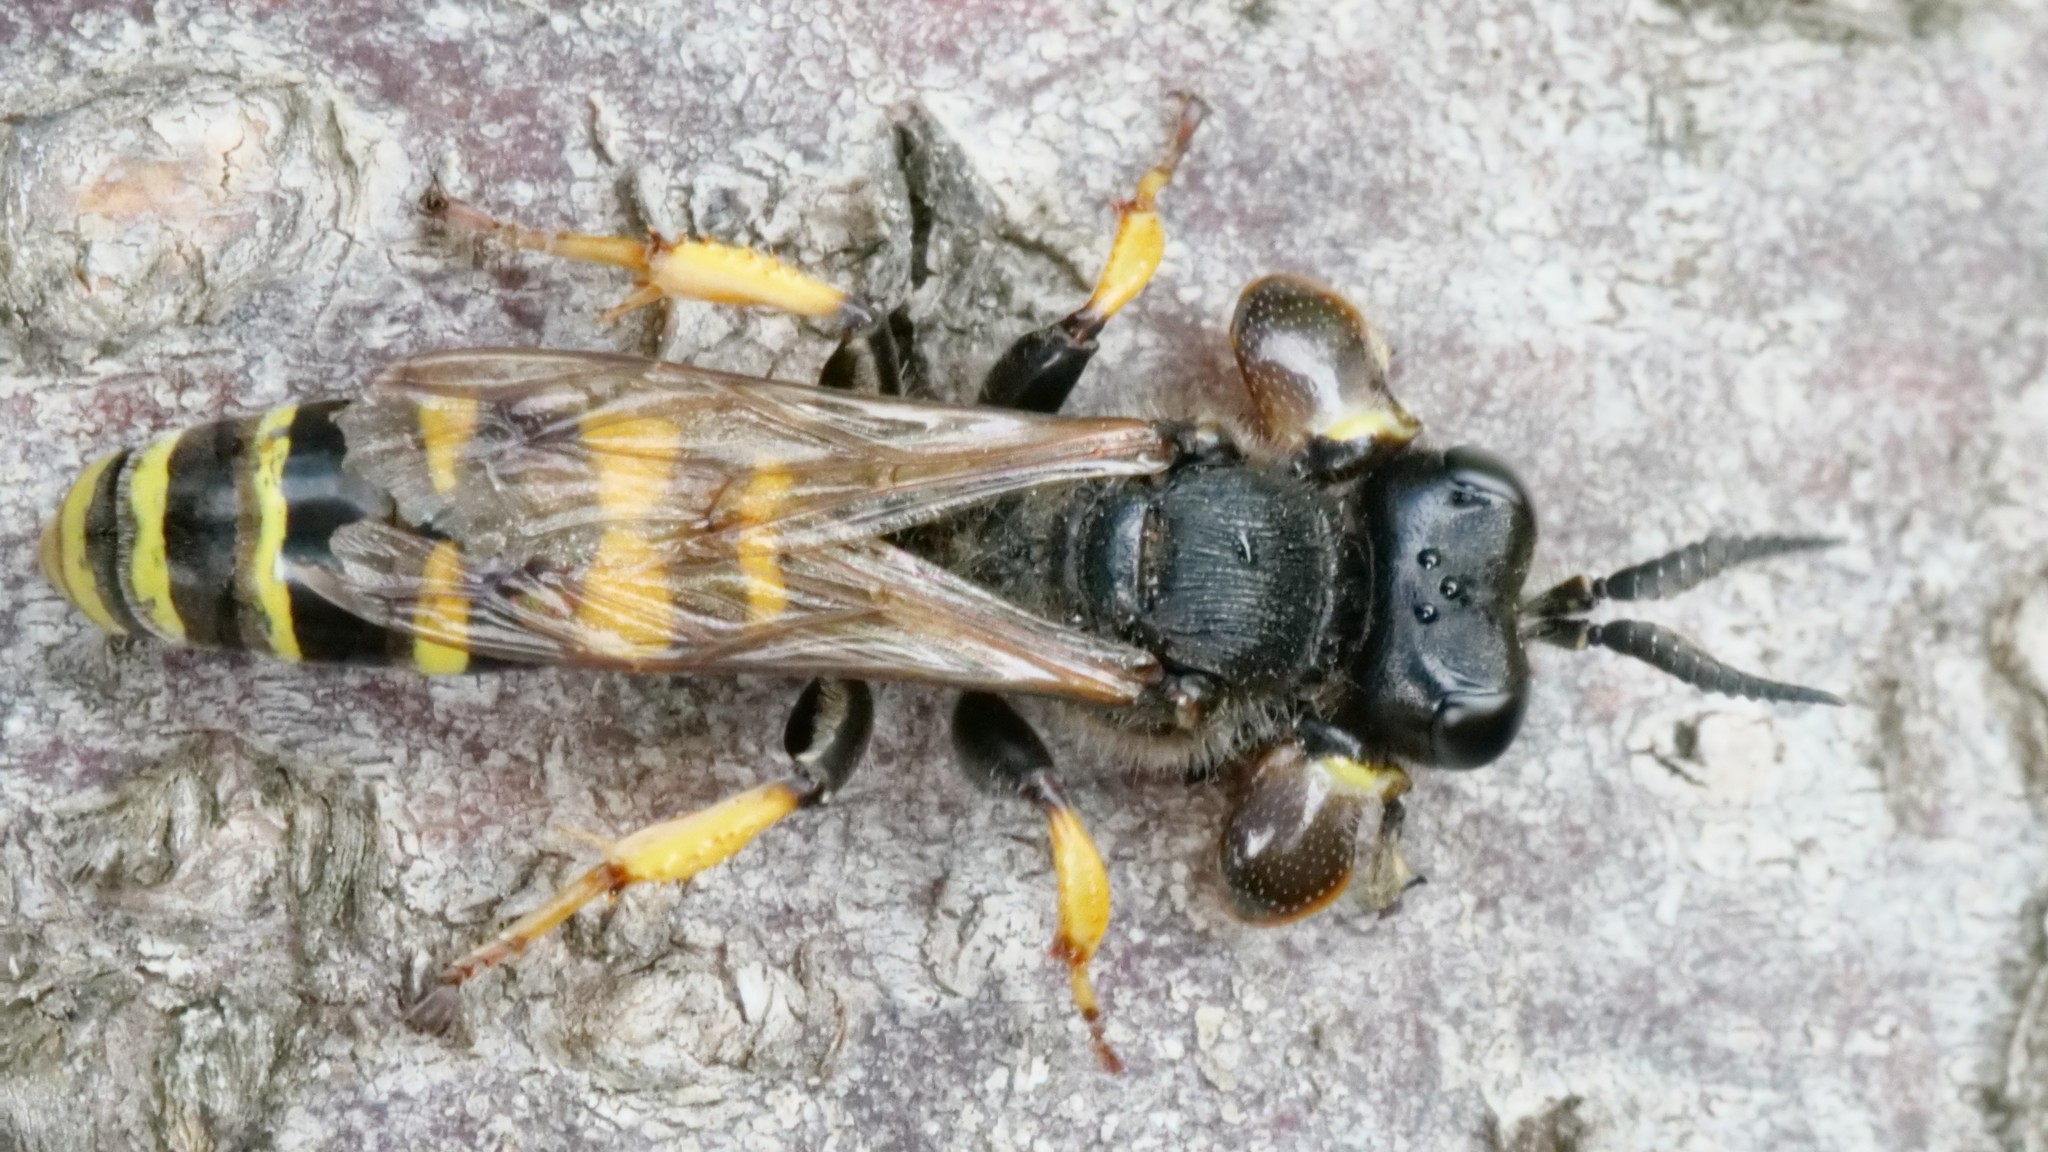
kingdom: Animalia
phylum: Arthropoda
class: Insecta
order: Hymenoptera
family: Crabronidae
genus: Crabro
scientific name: Crabro cribrarius
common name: Slender bodied digger wasp
